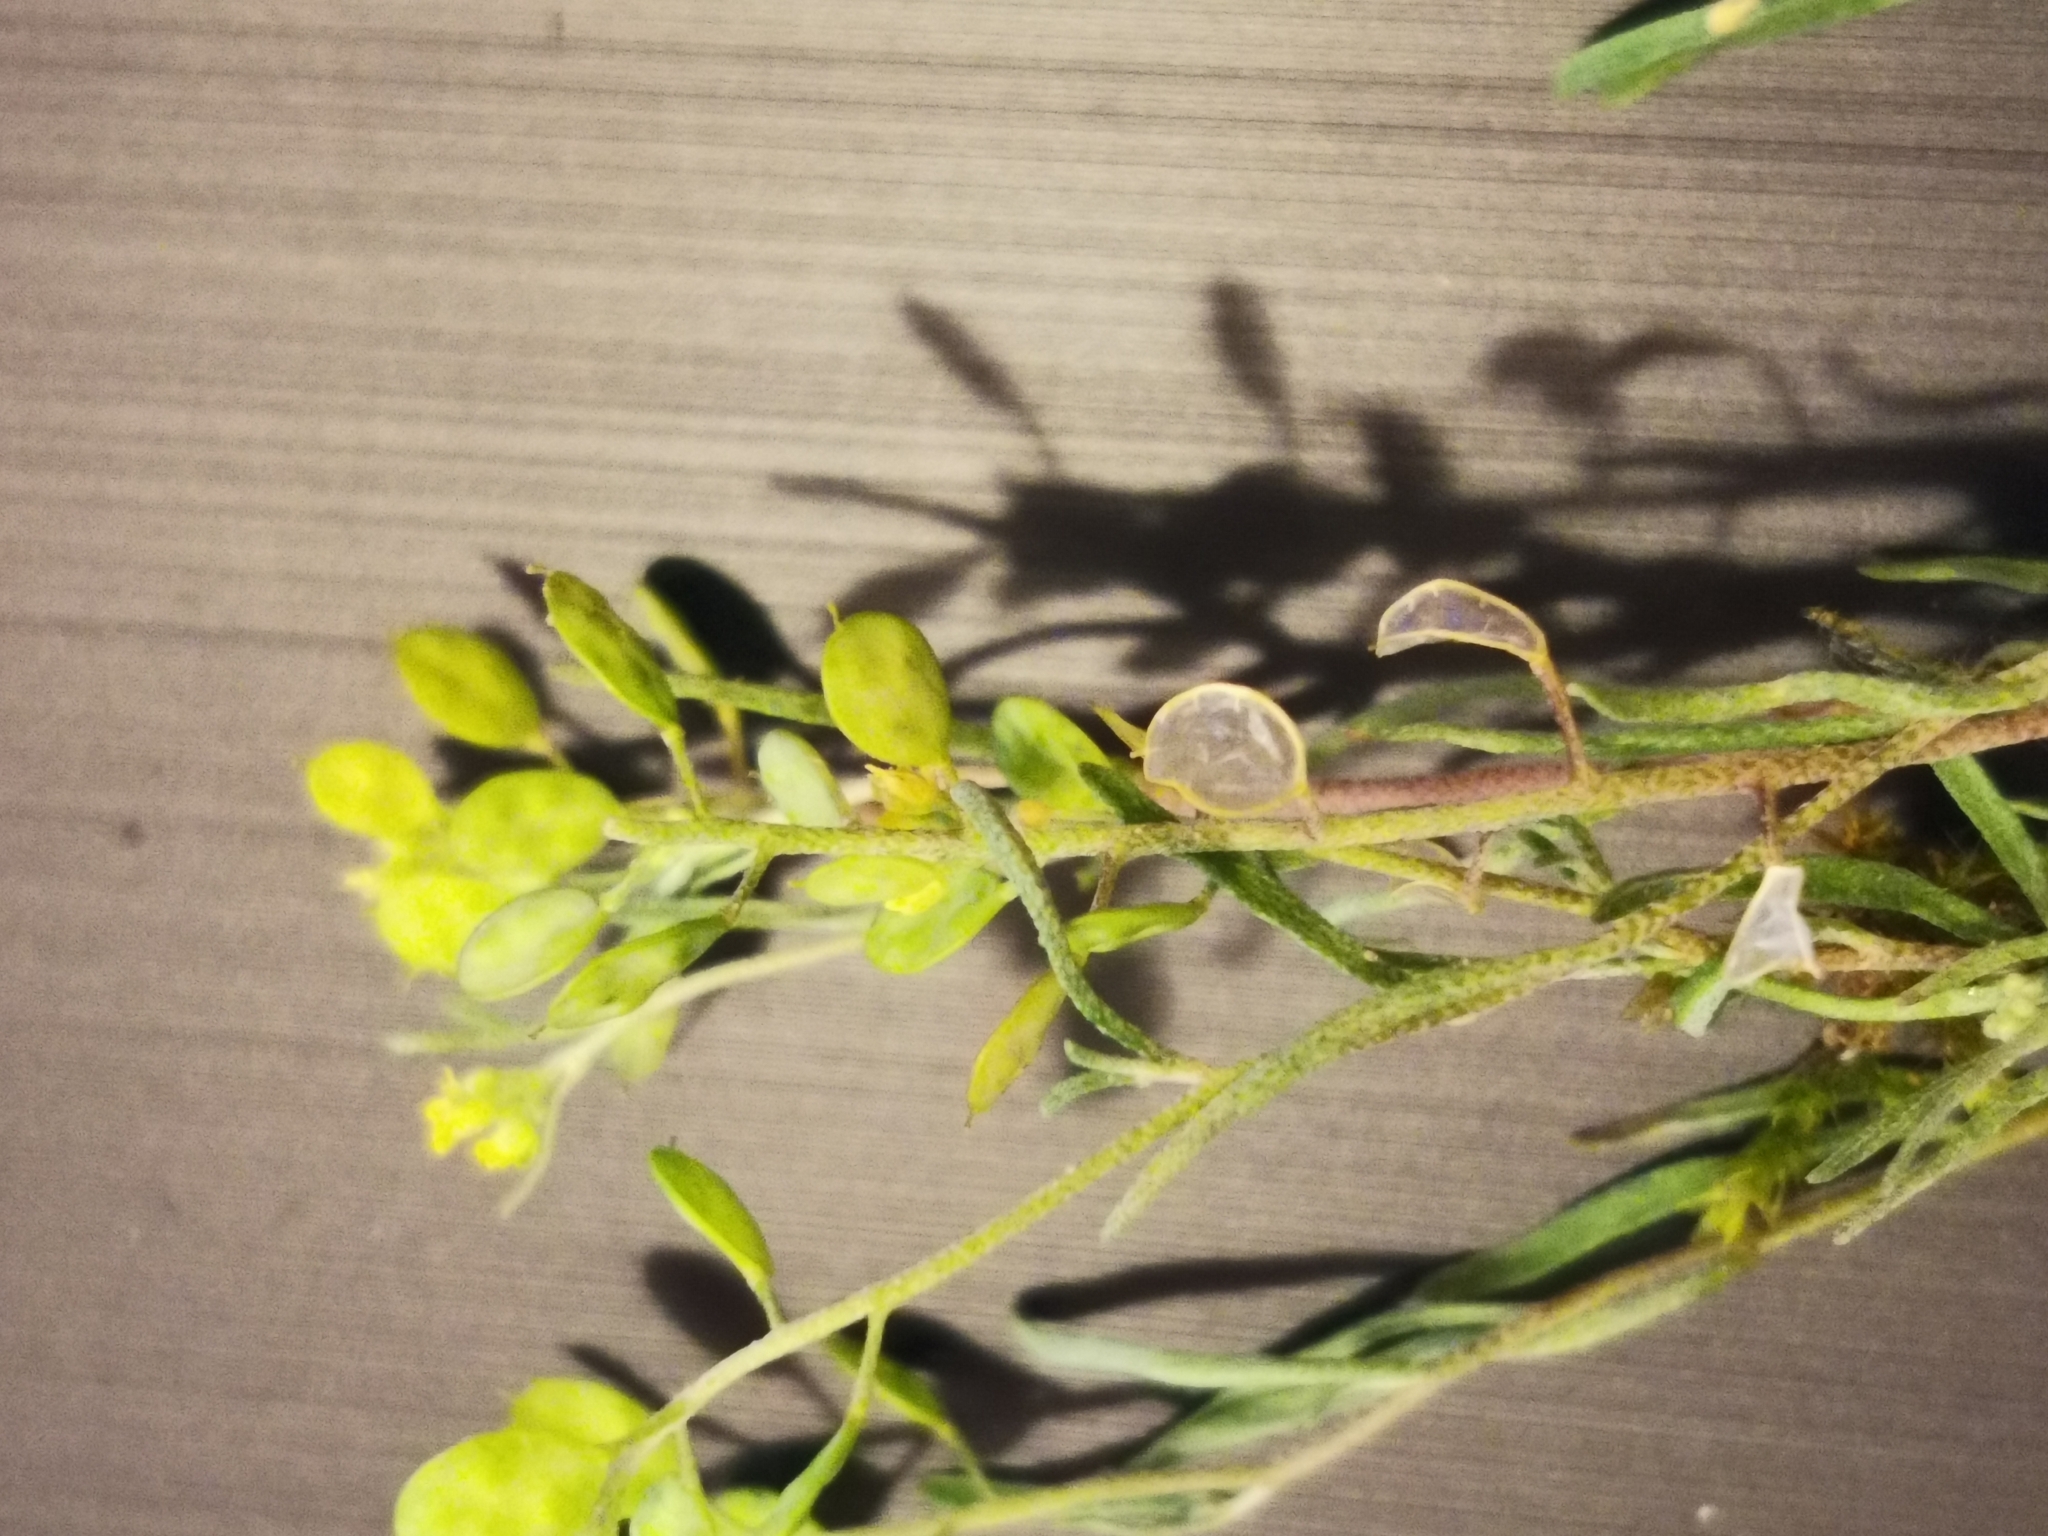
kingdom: Plantae
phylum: Tracheophyta
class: Magnoliopsida
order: Brassicales
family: Brassicaceae
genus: Meniocus
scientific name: Meniocus linifolius
